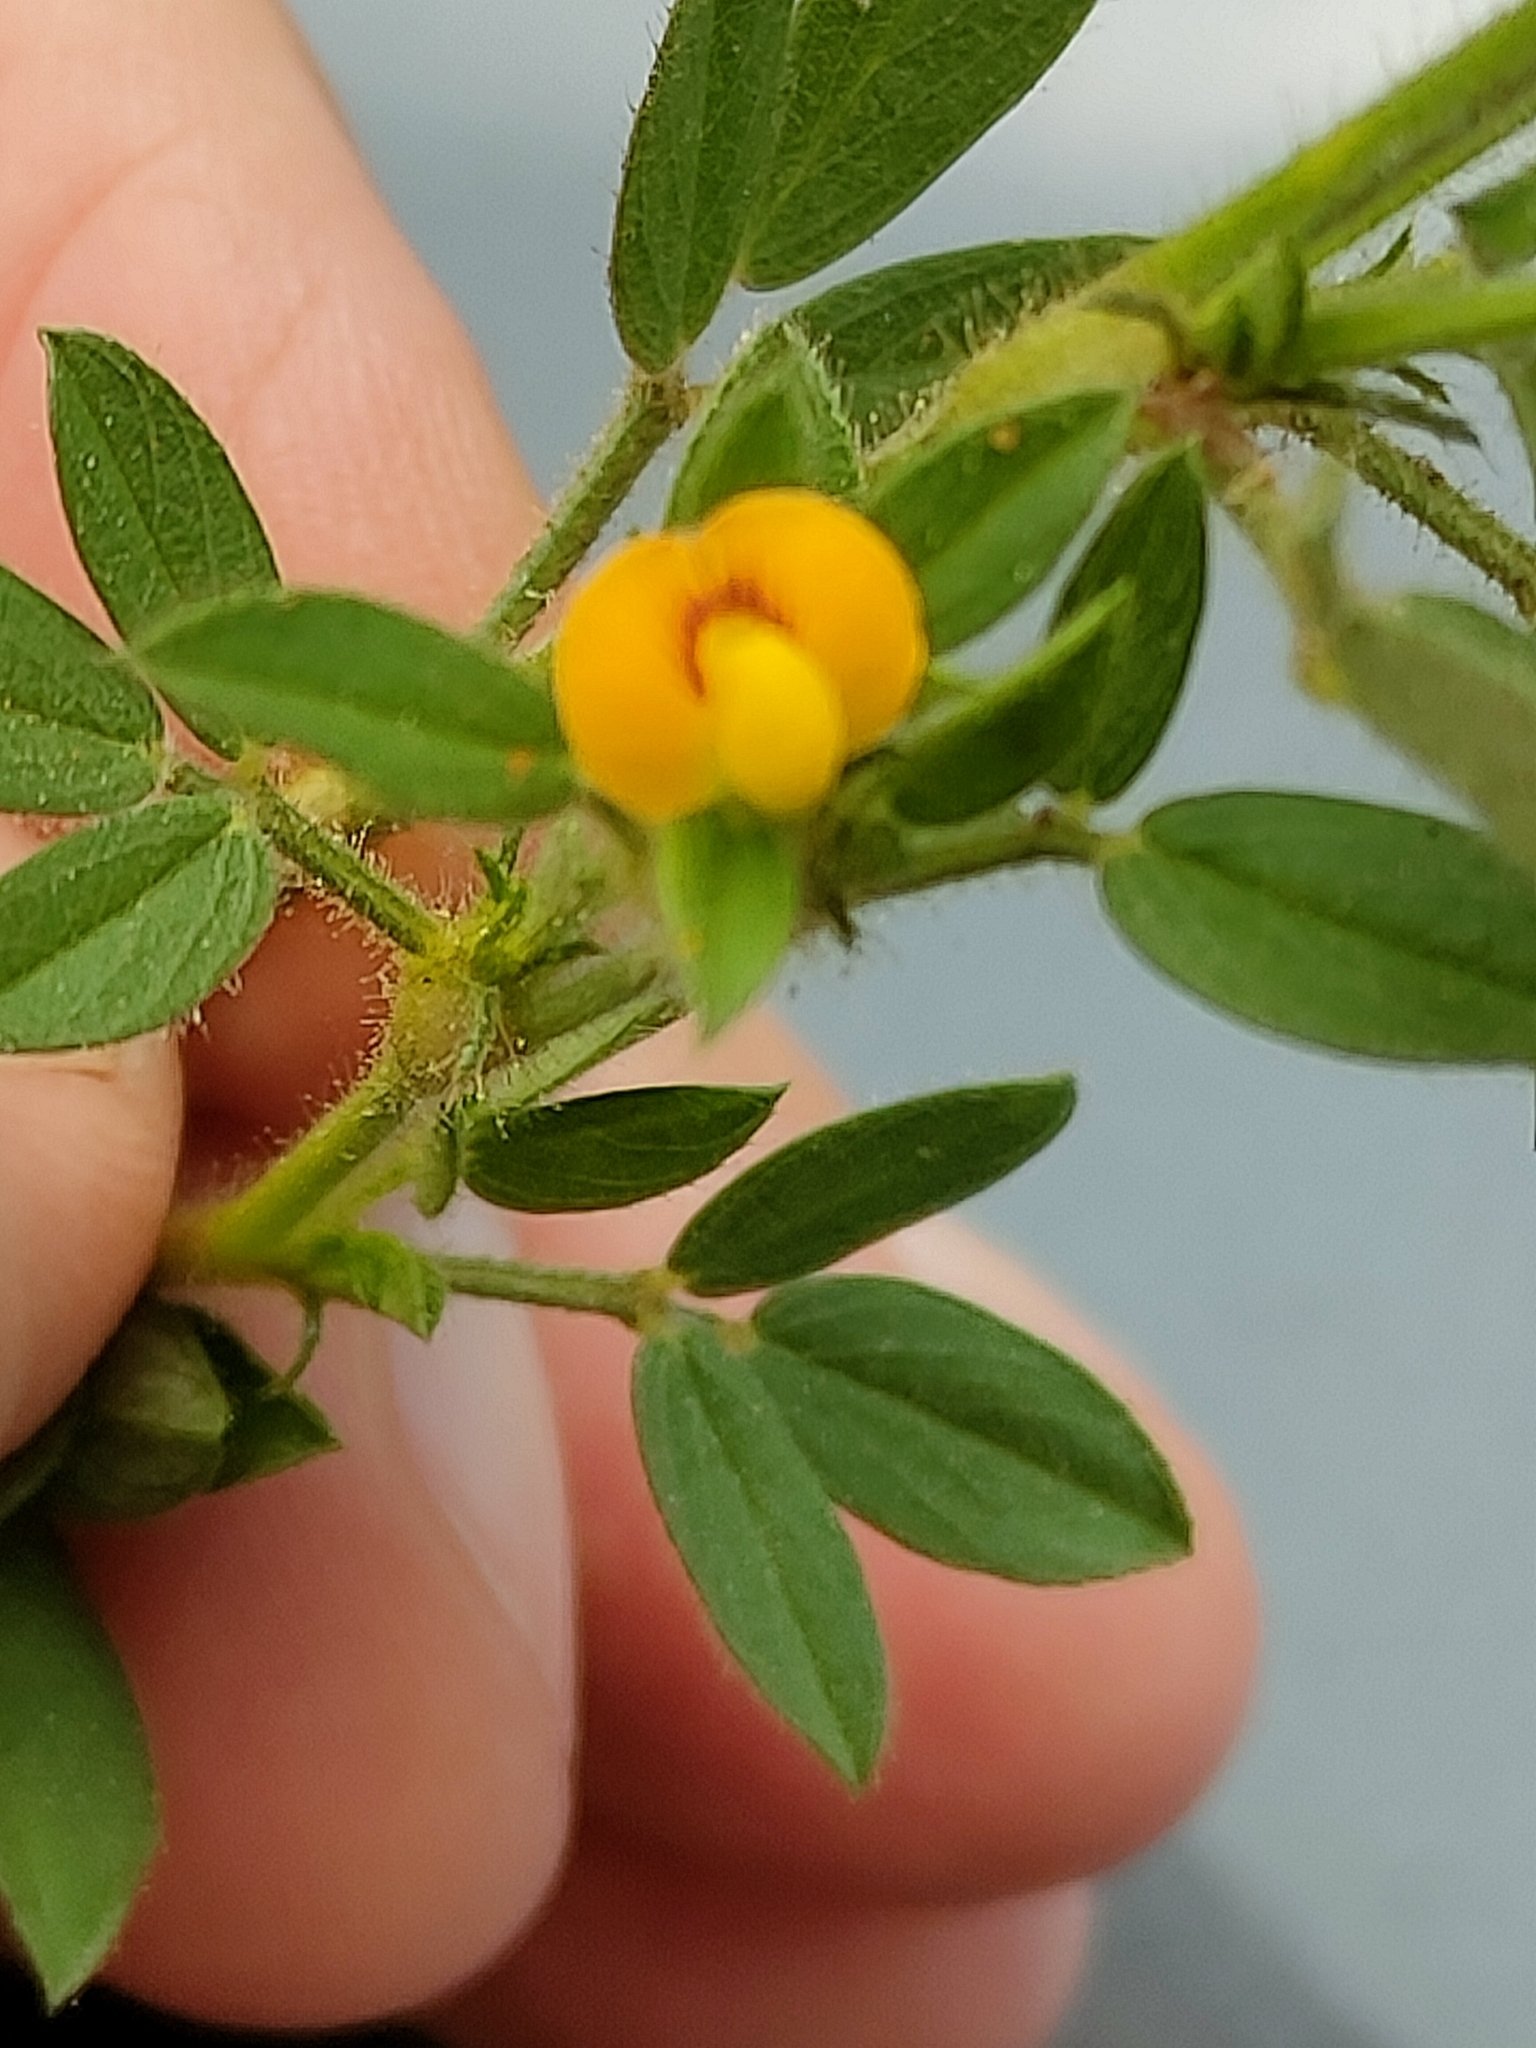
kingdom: Plantae
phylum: Tracheophyta
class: Magnoliopsida
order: Fabales
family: Fabaceae
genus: Stylosanthes
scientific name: Stylosanthes viscosa
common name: Viscid pencil-flower
